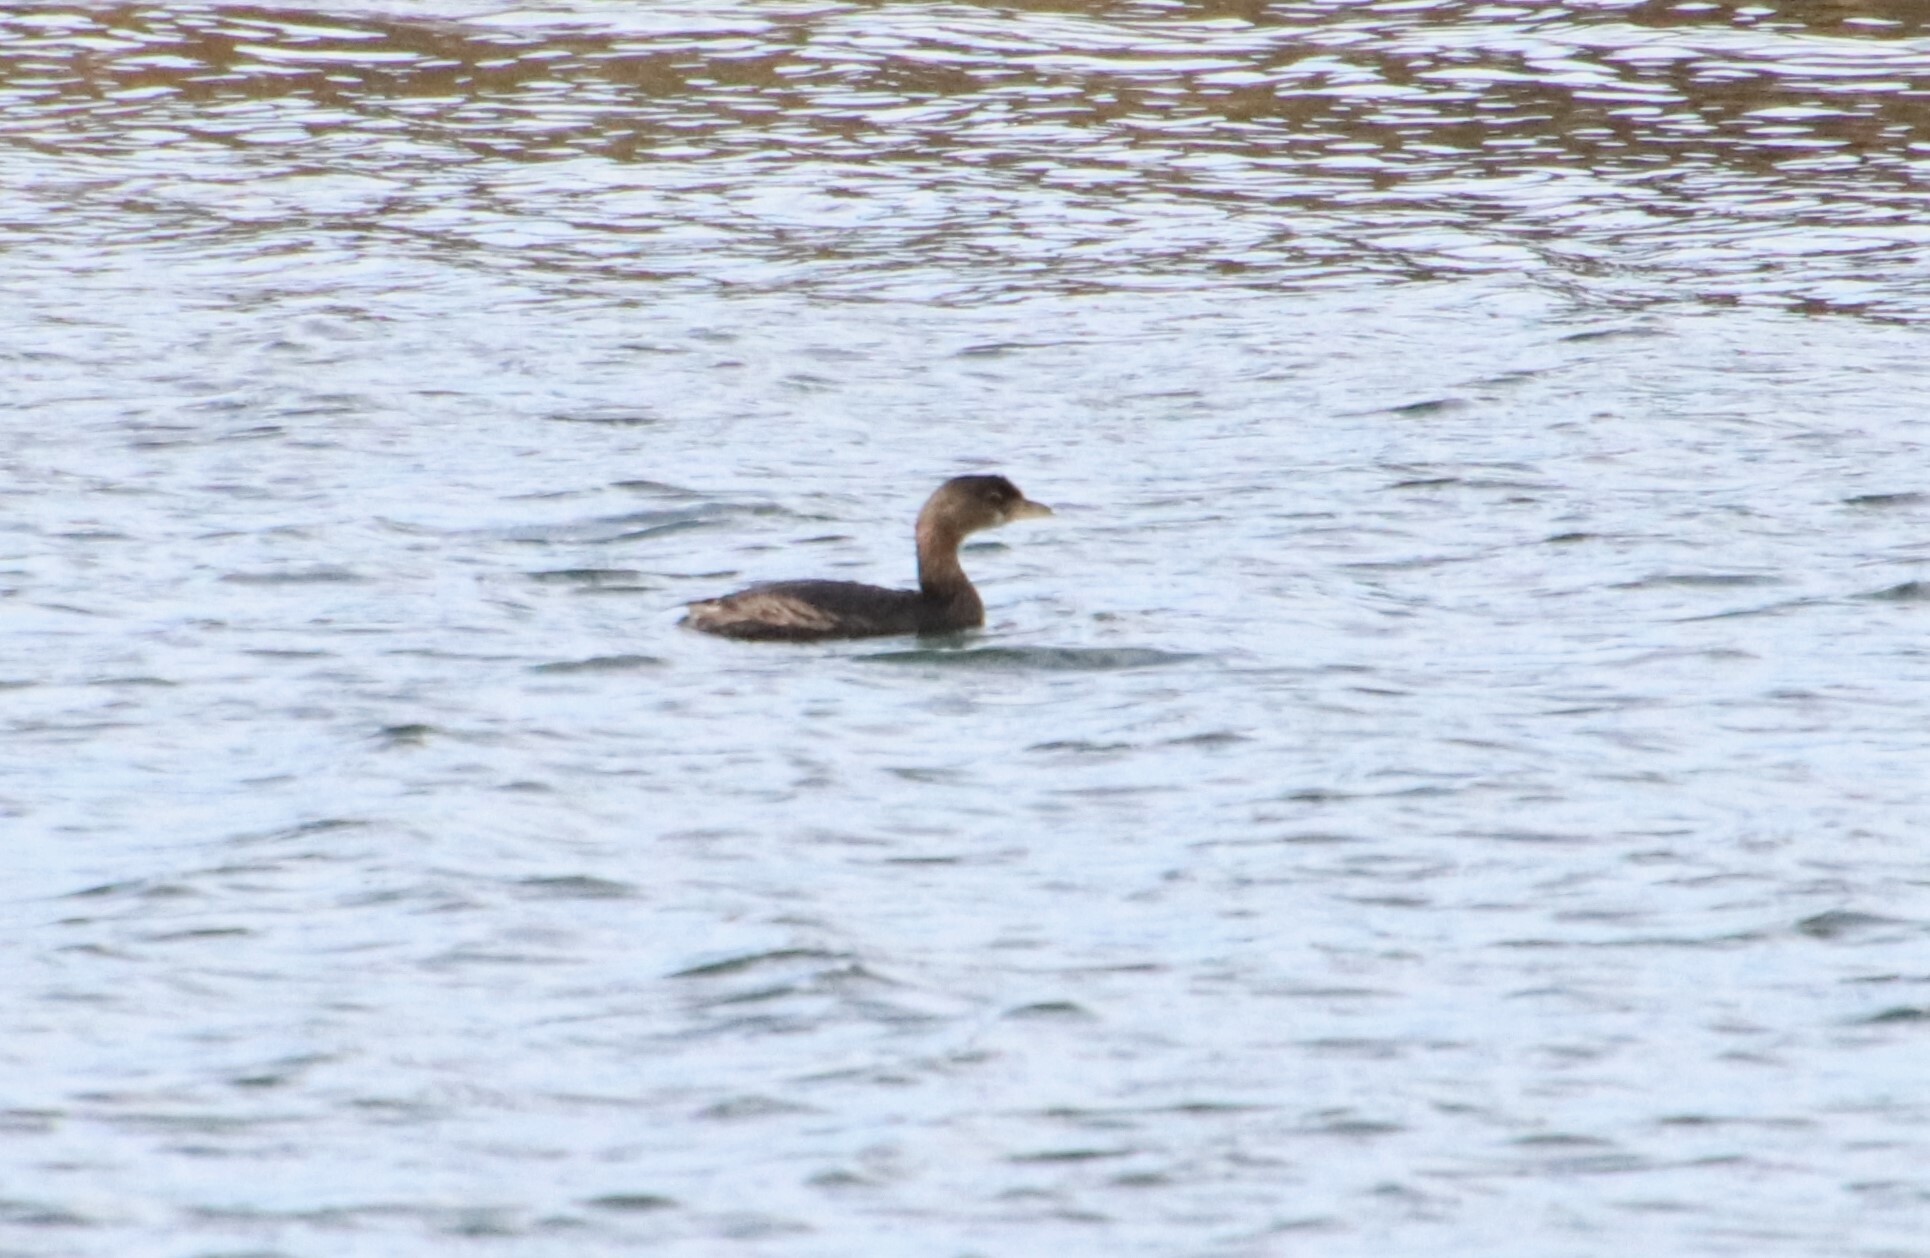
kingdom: Animalia
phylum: Chordata
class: Aves
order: Podicipediformes
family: Podicipedidae
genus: Podilymbus
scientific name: Podilymbus podiceps
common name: Pied-billed grebe
